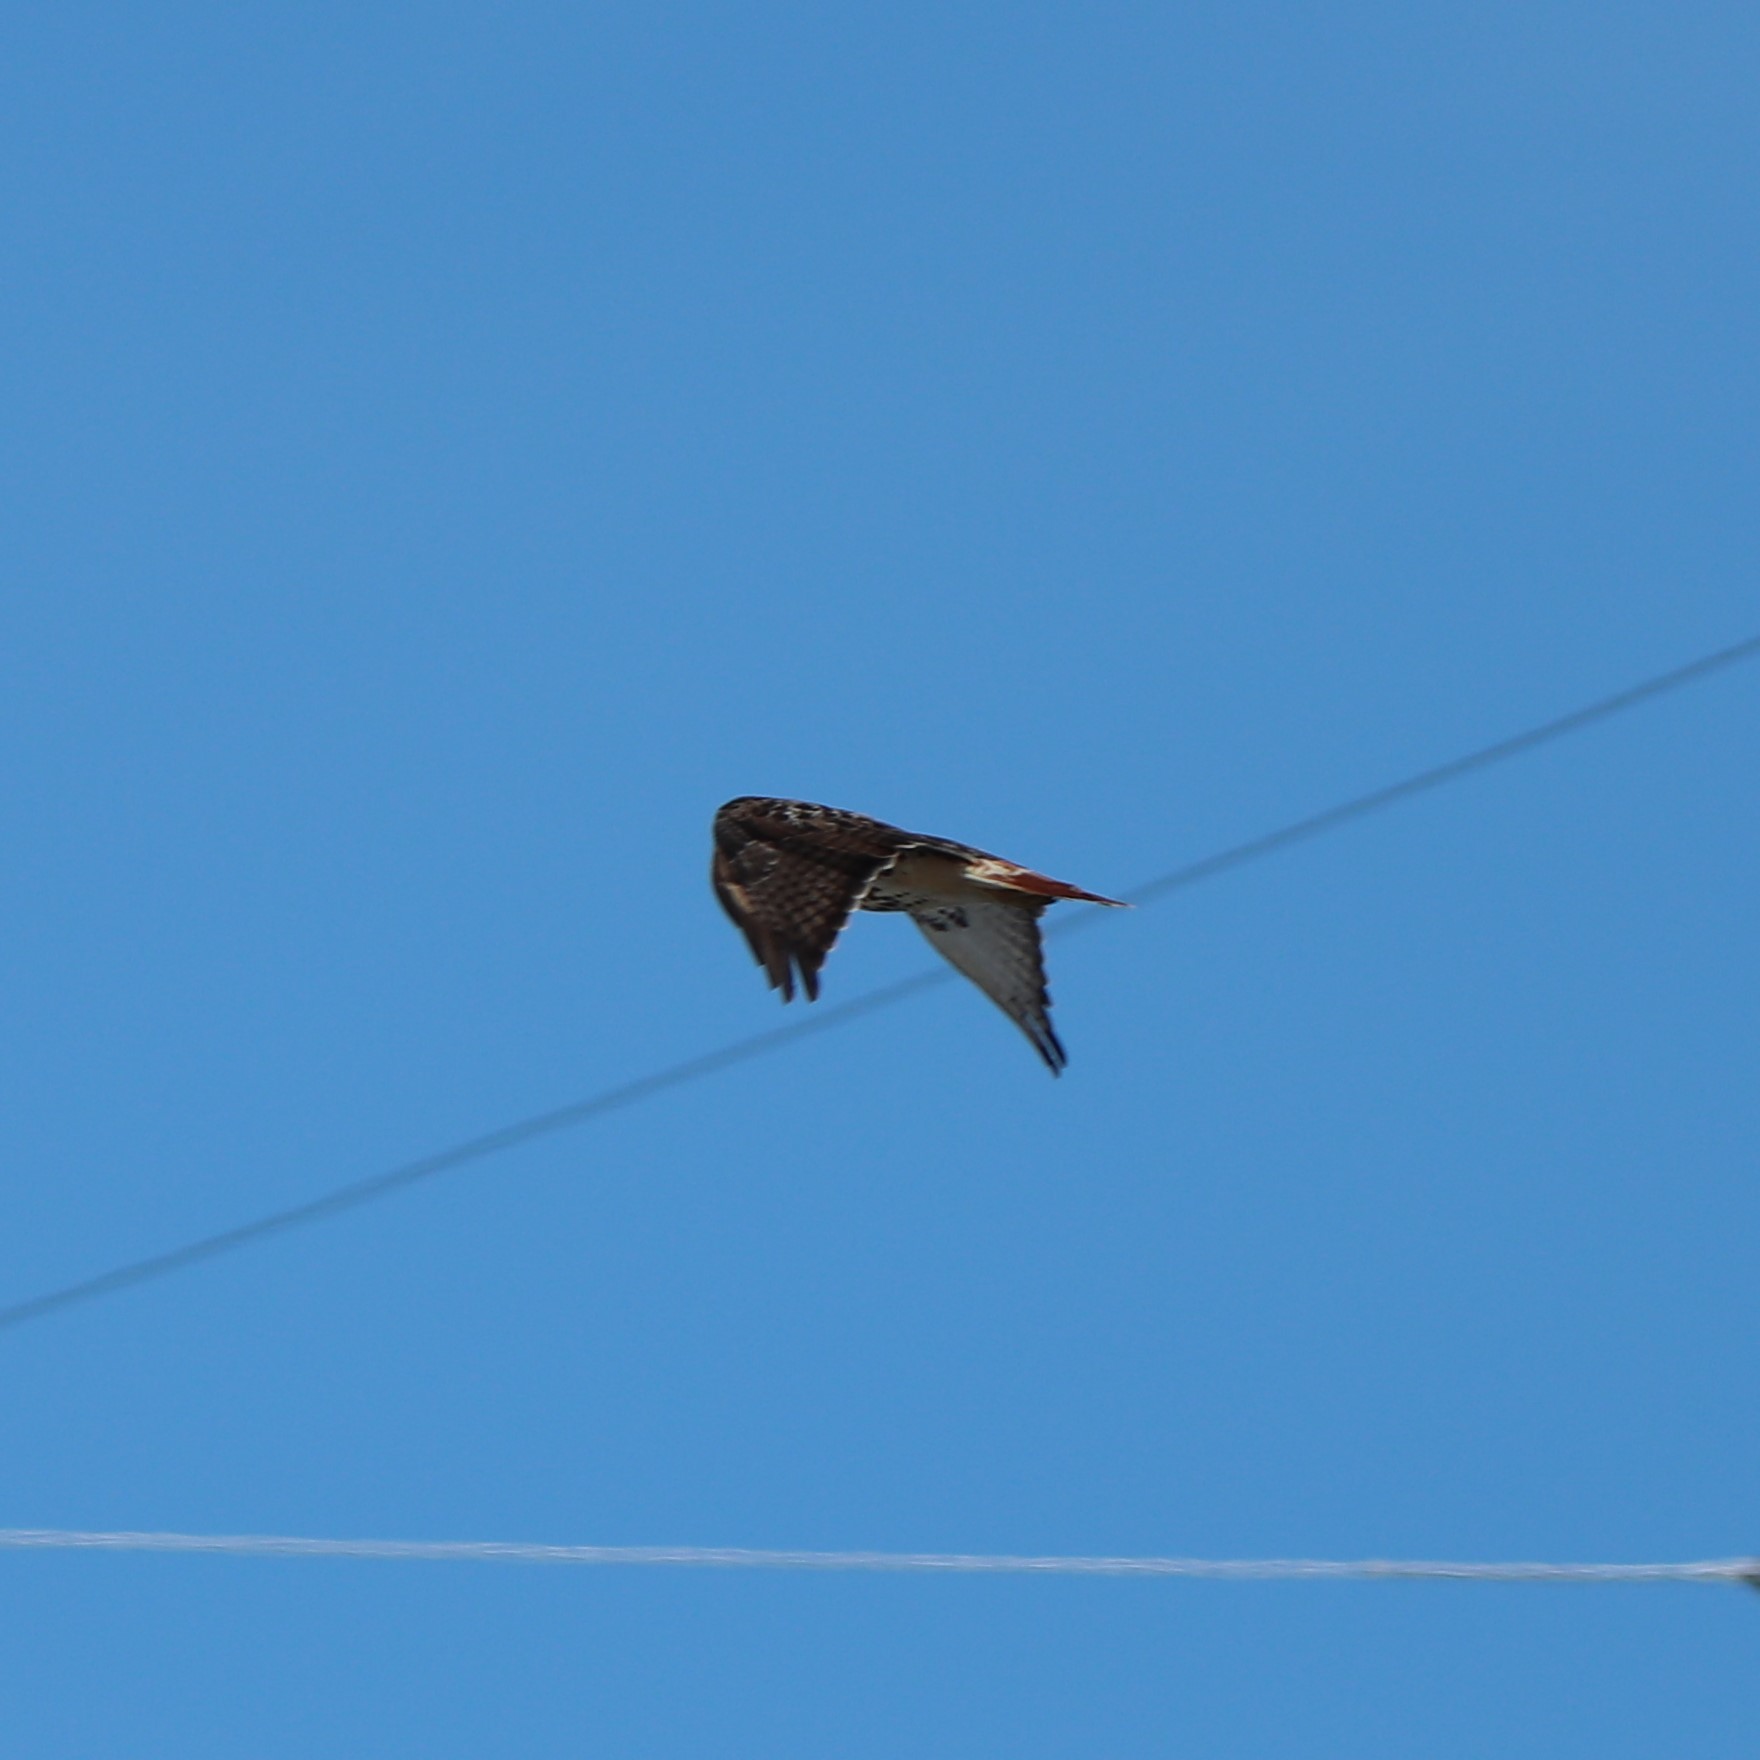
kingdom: Animalia
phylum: Chordata
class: Aves
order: Accipitriformes
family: Accipitridae
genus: Buteo
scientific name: Buteo jamaicensis
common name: Red-tailed hawk
